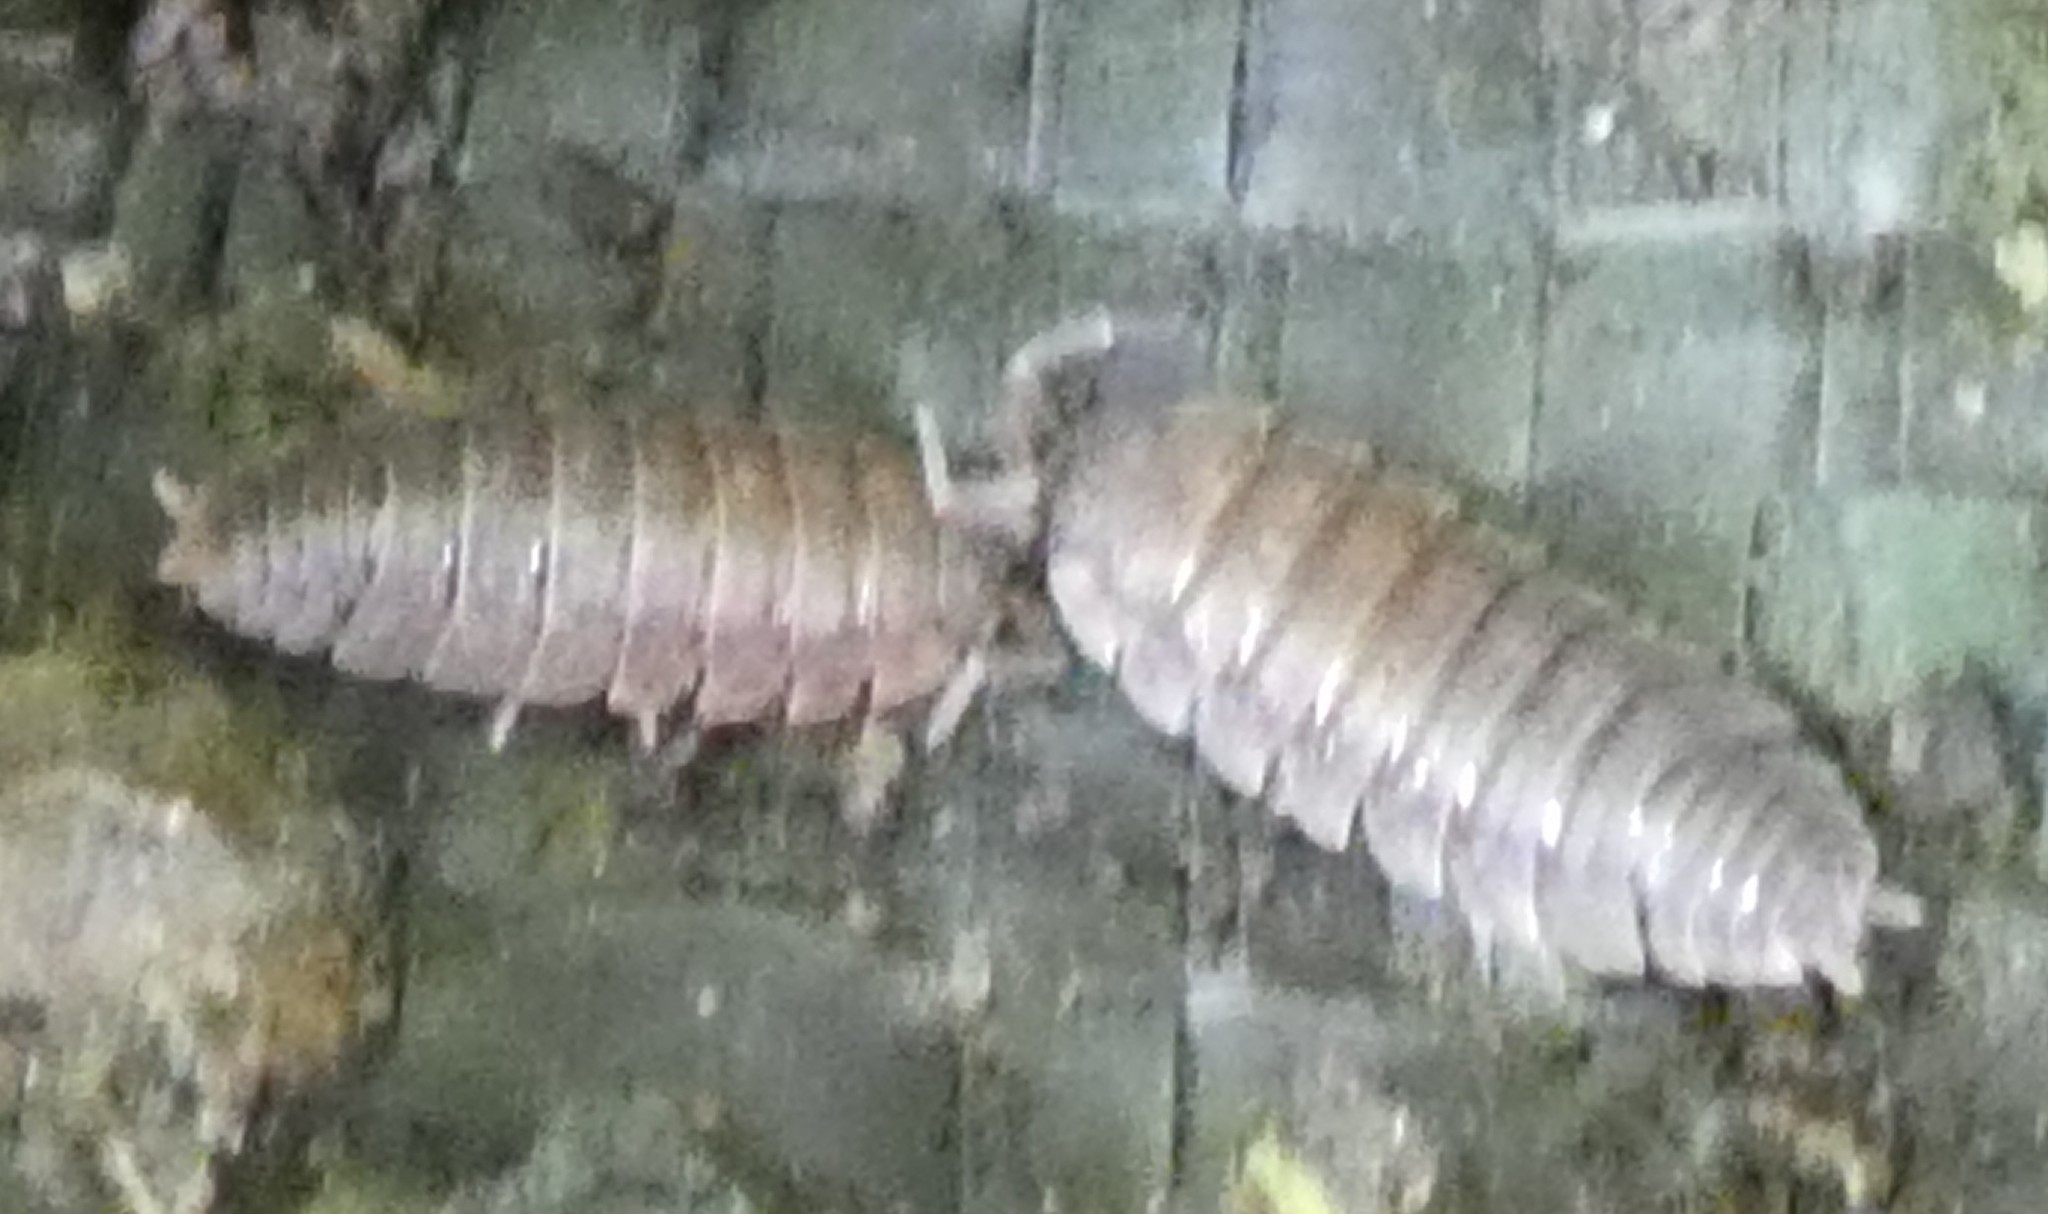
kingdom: Animalia
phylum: Arthropoda
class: Malacostraca
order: Isopoda
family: Porcellionidae
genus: Porcellio
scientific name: Porcellio scaber
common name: Common rough woodlouse
